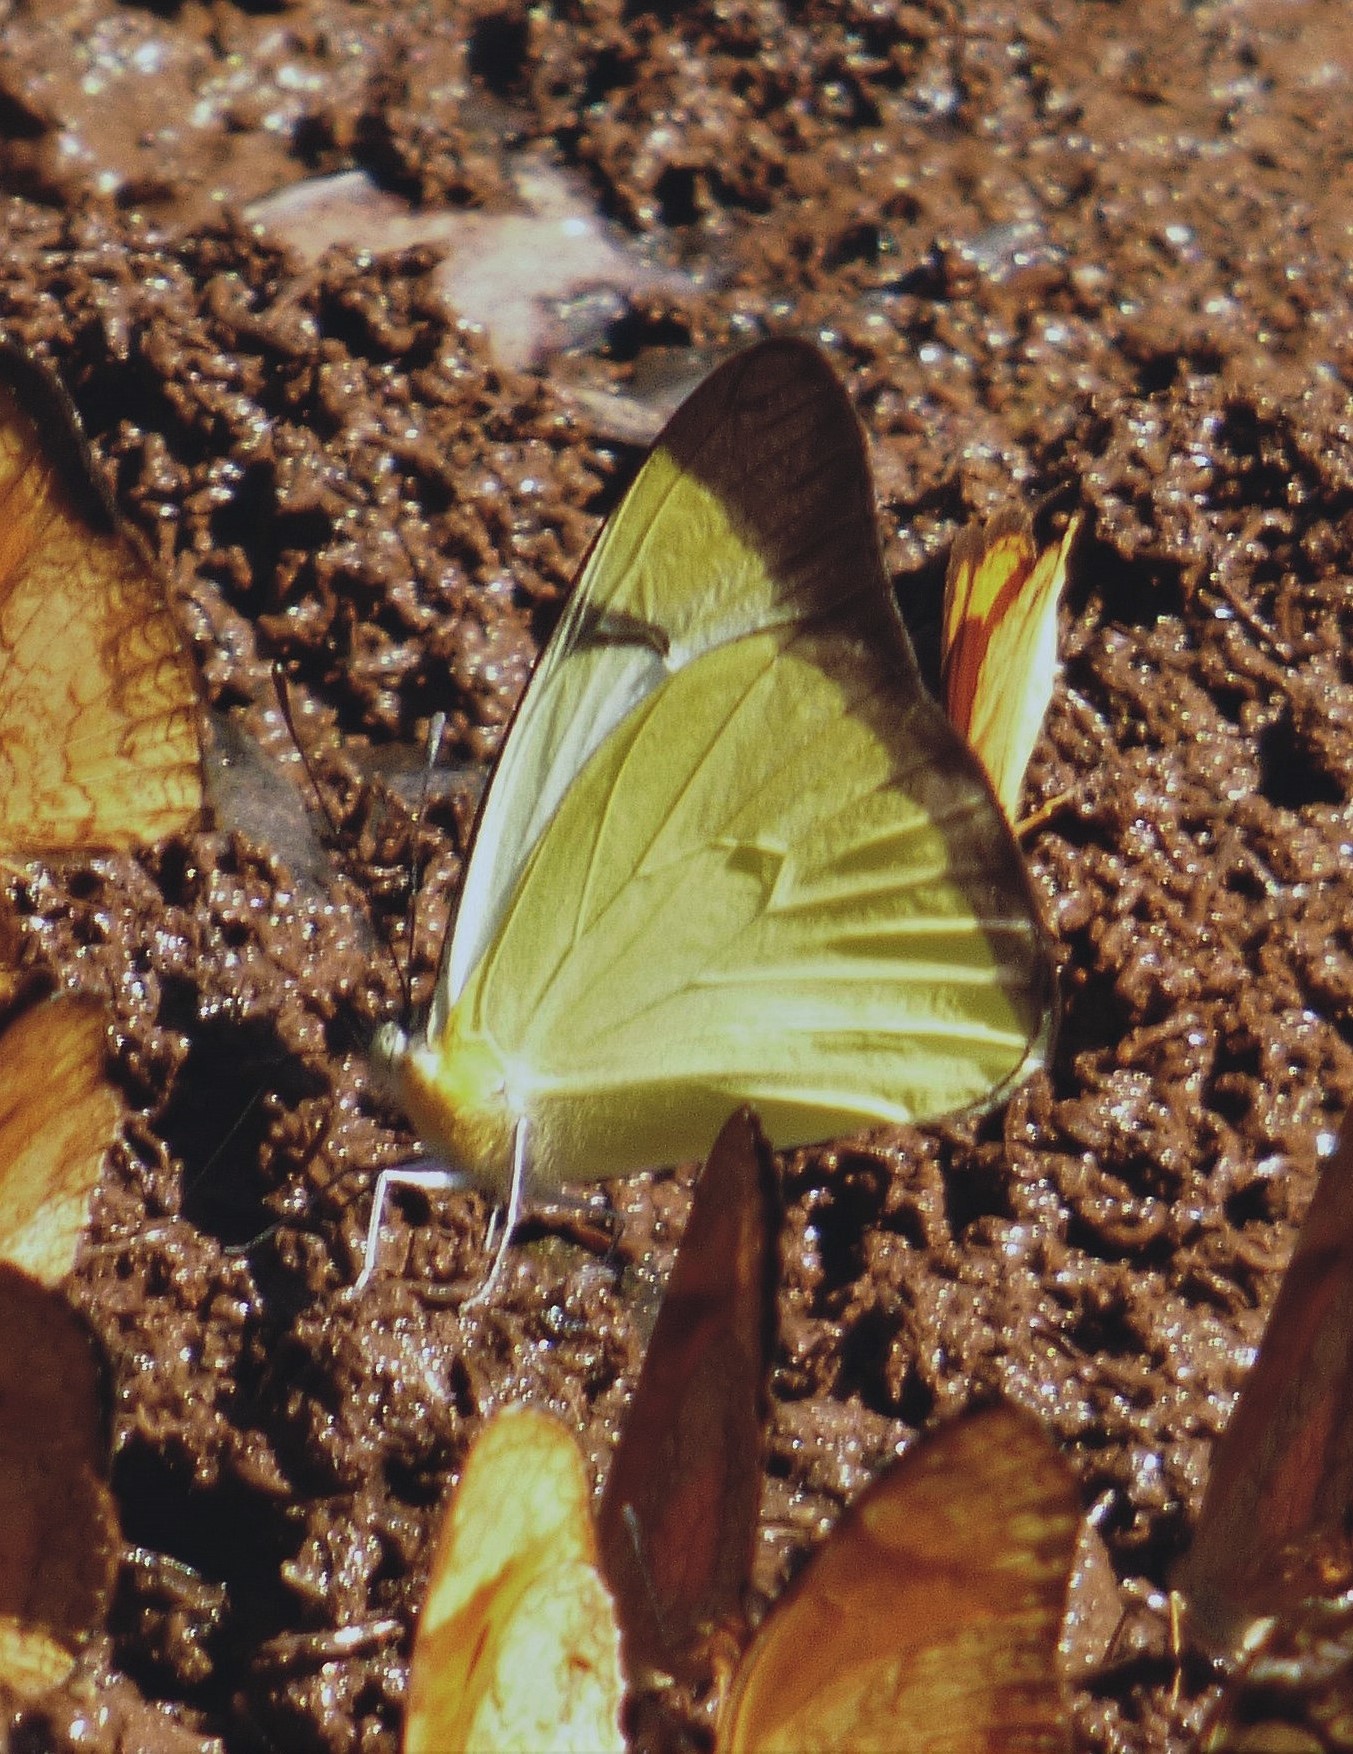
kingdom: Animalia
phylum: Arthropoda
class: Insecta
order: Lepidoptera
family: Pieridae
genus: Melete
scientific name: Melete lycimnia
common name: Common melwhite
